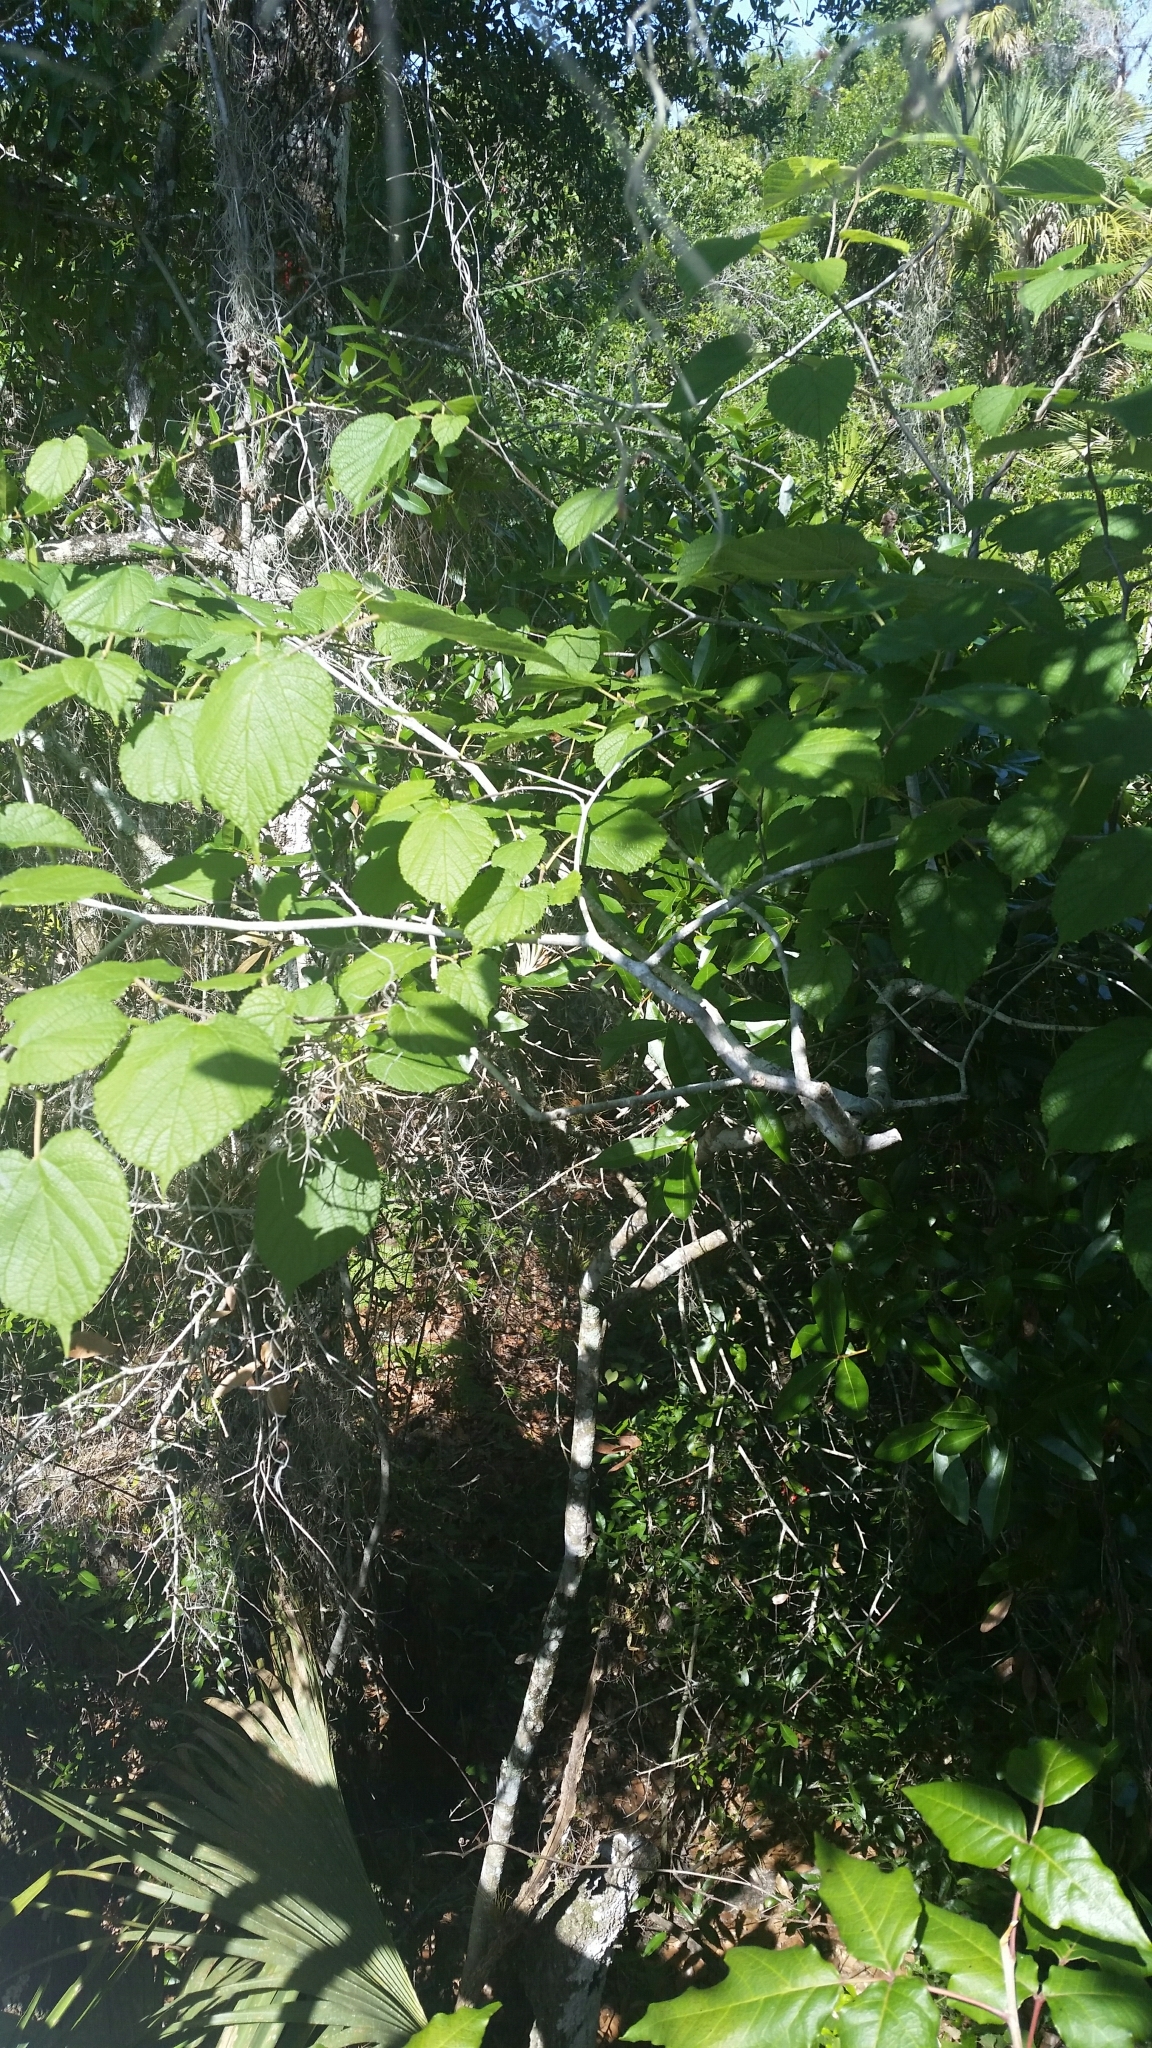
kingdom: Plantae
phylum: Tracheophyta
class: Magnoliopsida
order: Rosales
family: Moraceae
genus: Morus
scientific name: Morus rubra
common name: Red mulberry
